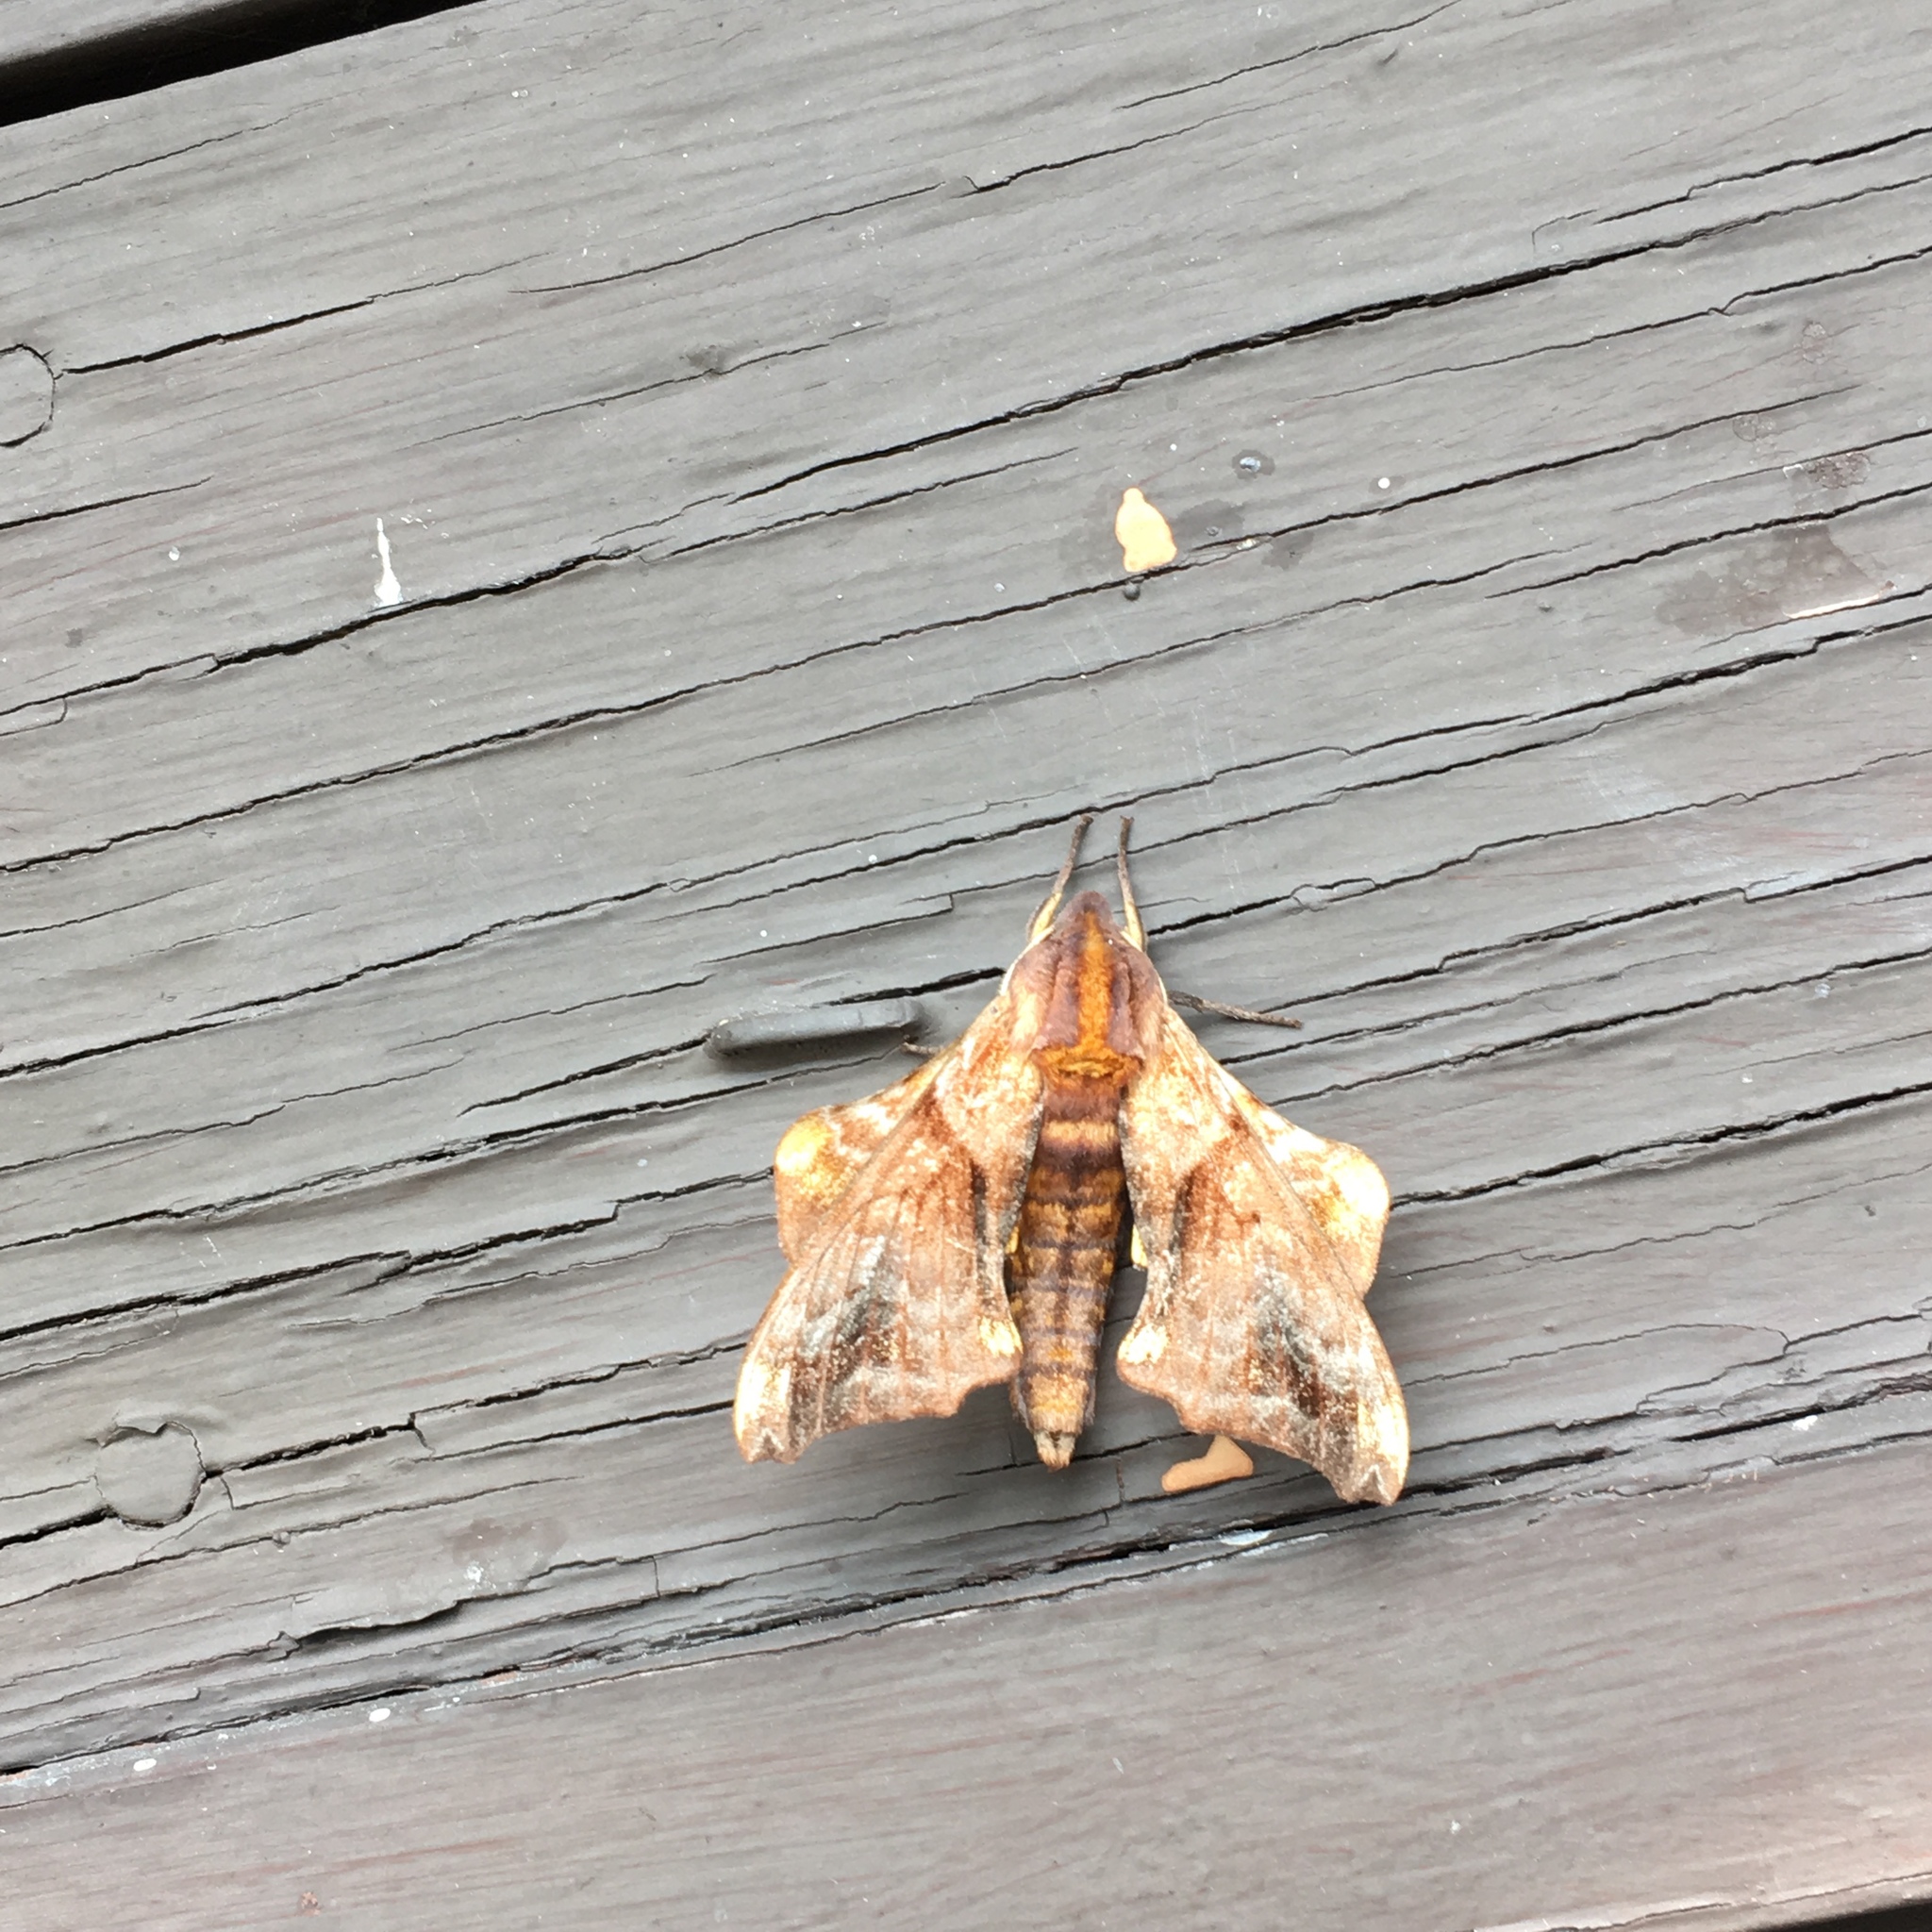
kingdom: Animalia
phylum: Arthropoda
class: Insecta
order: Lepidoptera
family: Sphingidae
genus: Paonias
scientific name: Paonias myops
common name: Small-eyed sphinx
